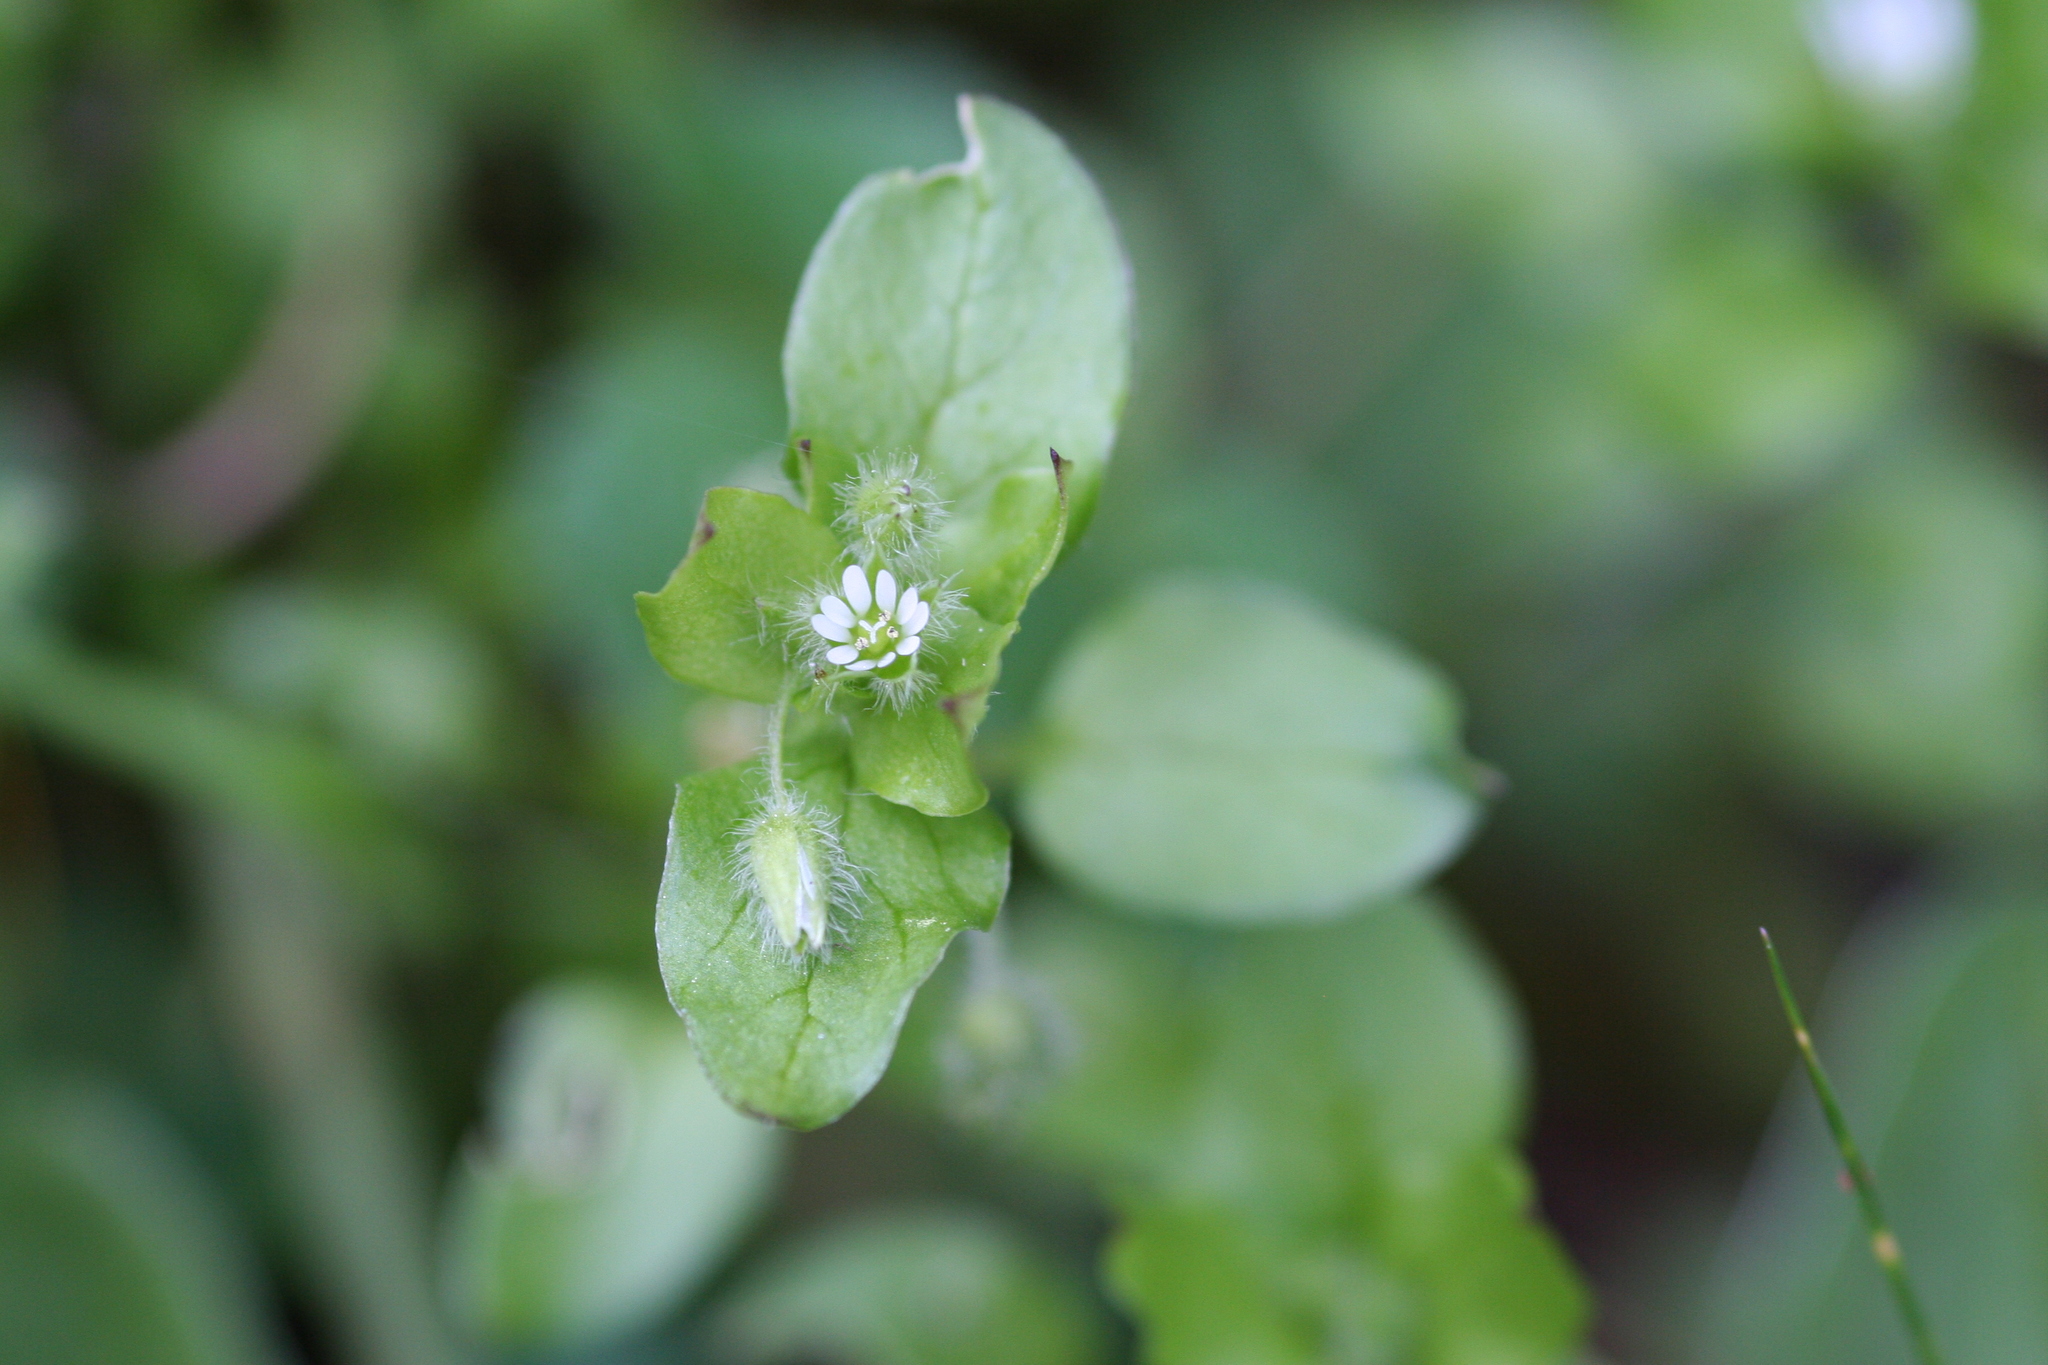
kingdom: Plantae
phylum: Tracheophyta
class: Magnoliopsida
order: Caryophyllales
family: Caryophyllaceae
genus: Stellaria
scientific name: Stellaria media
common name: Common chickweed
